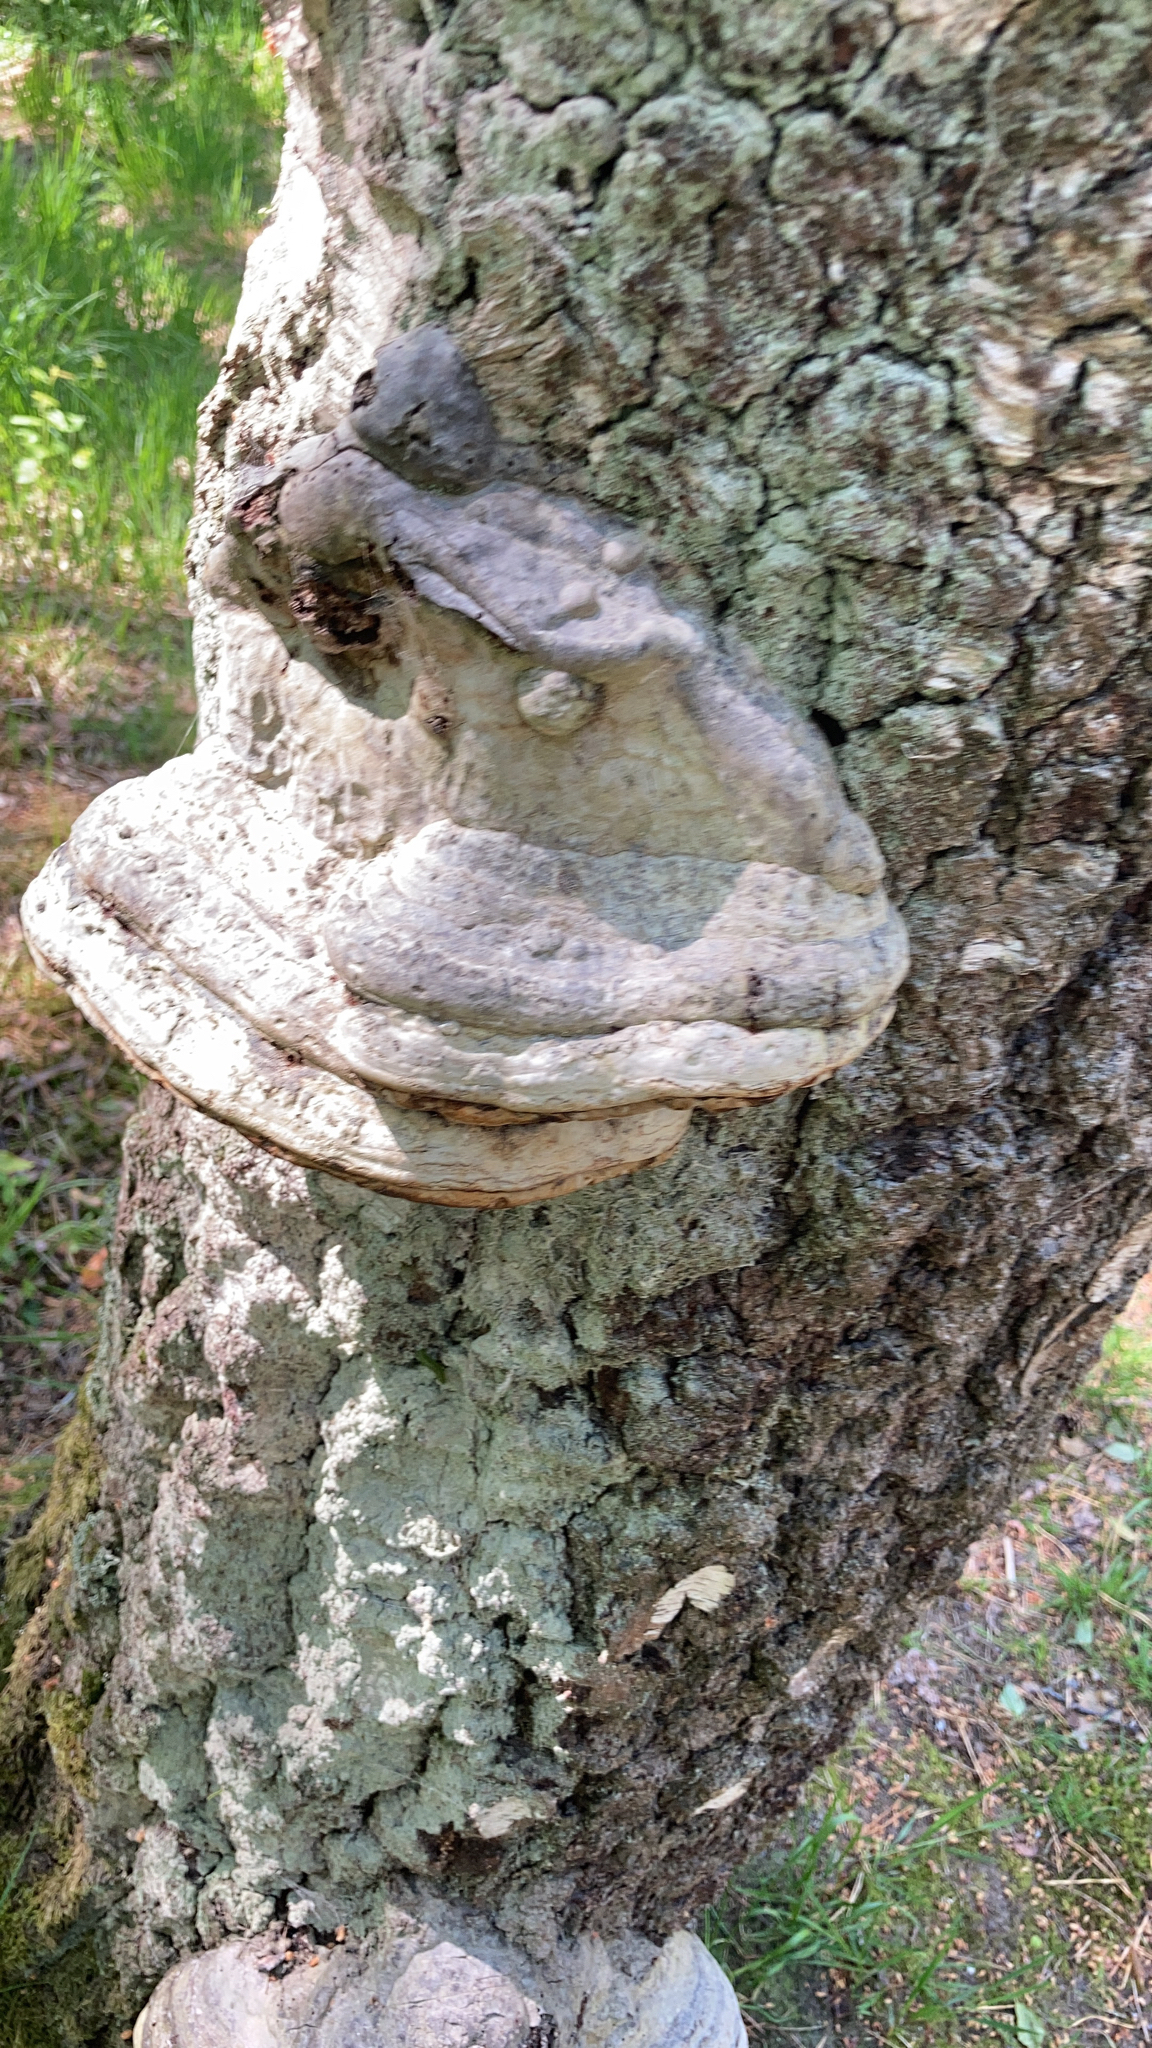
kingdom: Fungi
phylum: Basidiomycota
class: Agaricomycetes
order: Polyporales
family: Polyporaceae
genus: Fomes
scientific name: Fomes fomentarius
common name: Hoof fungus
